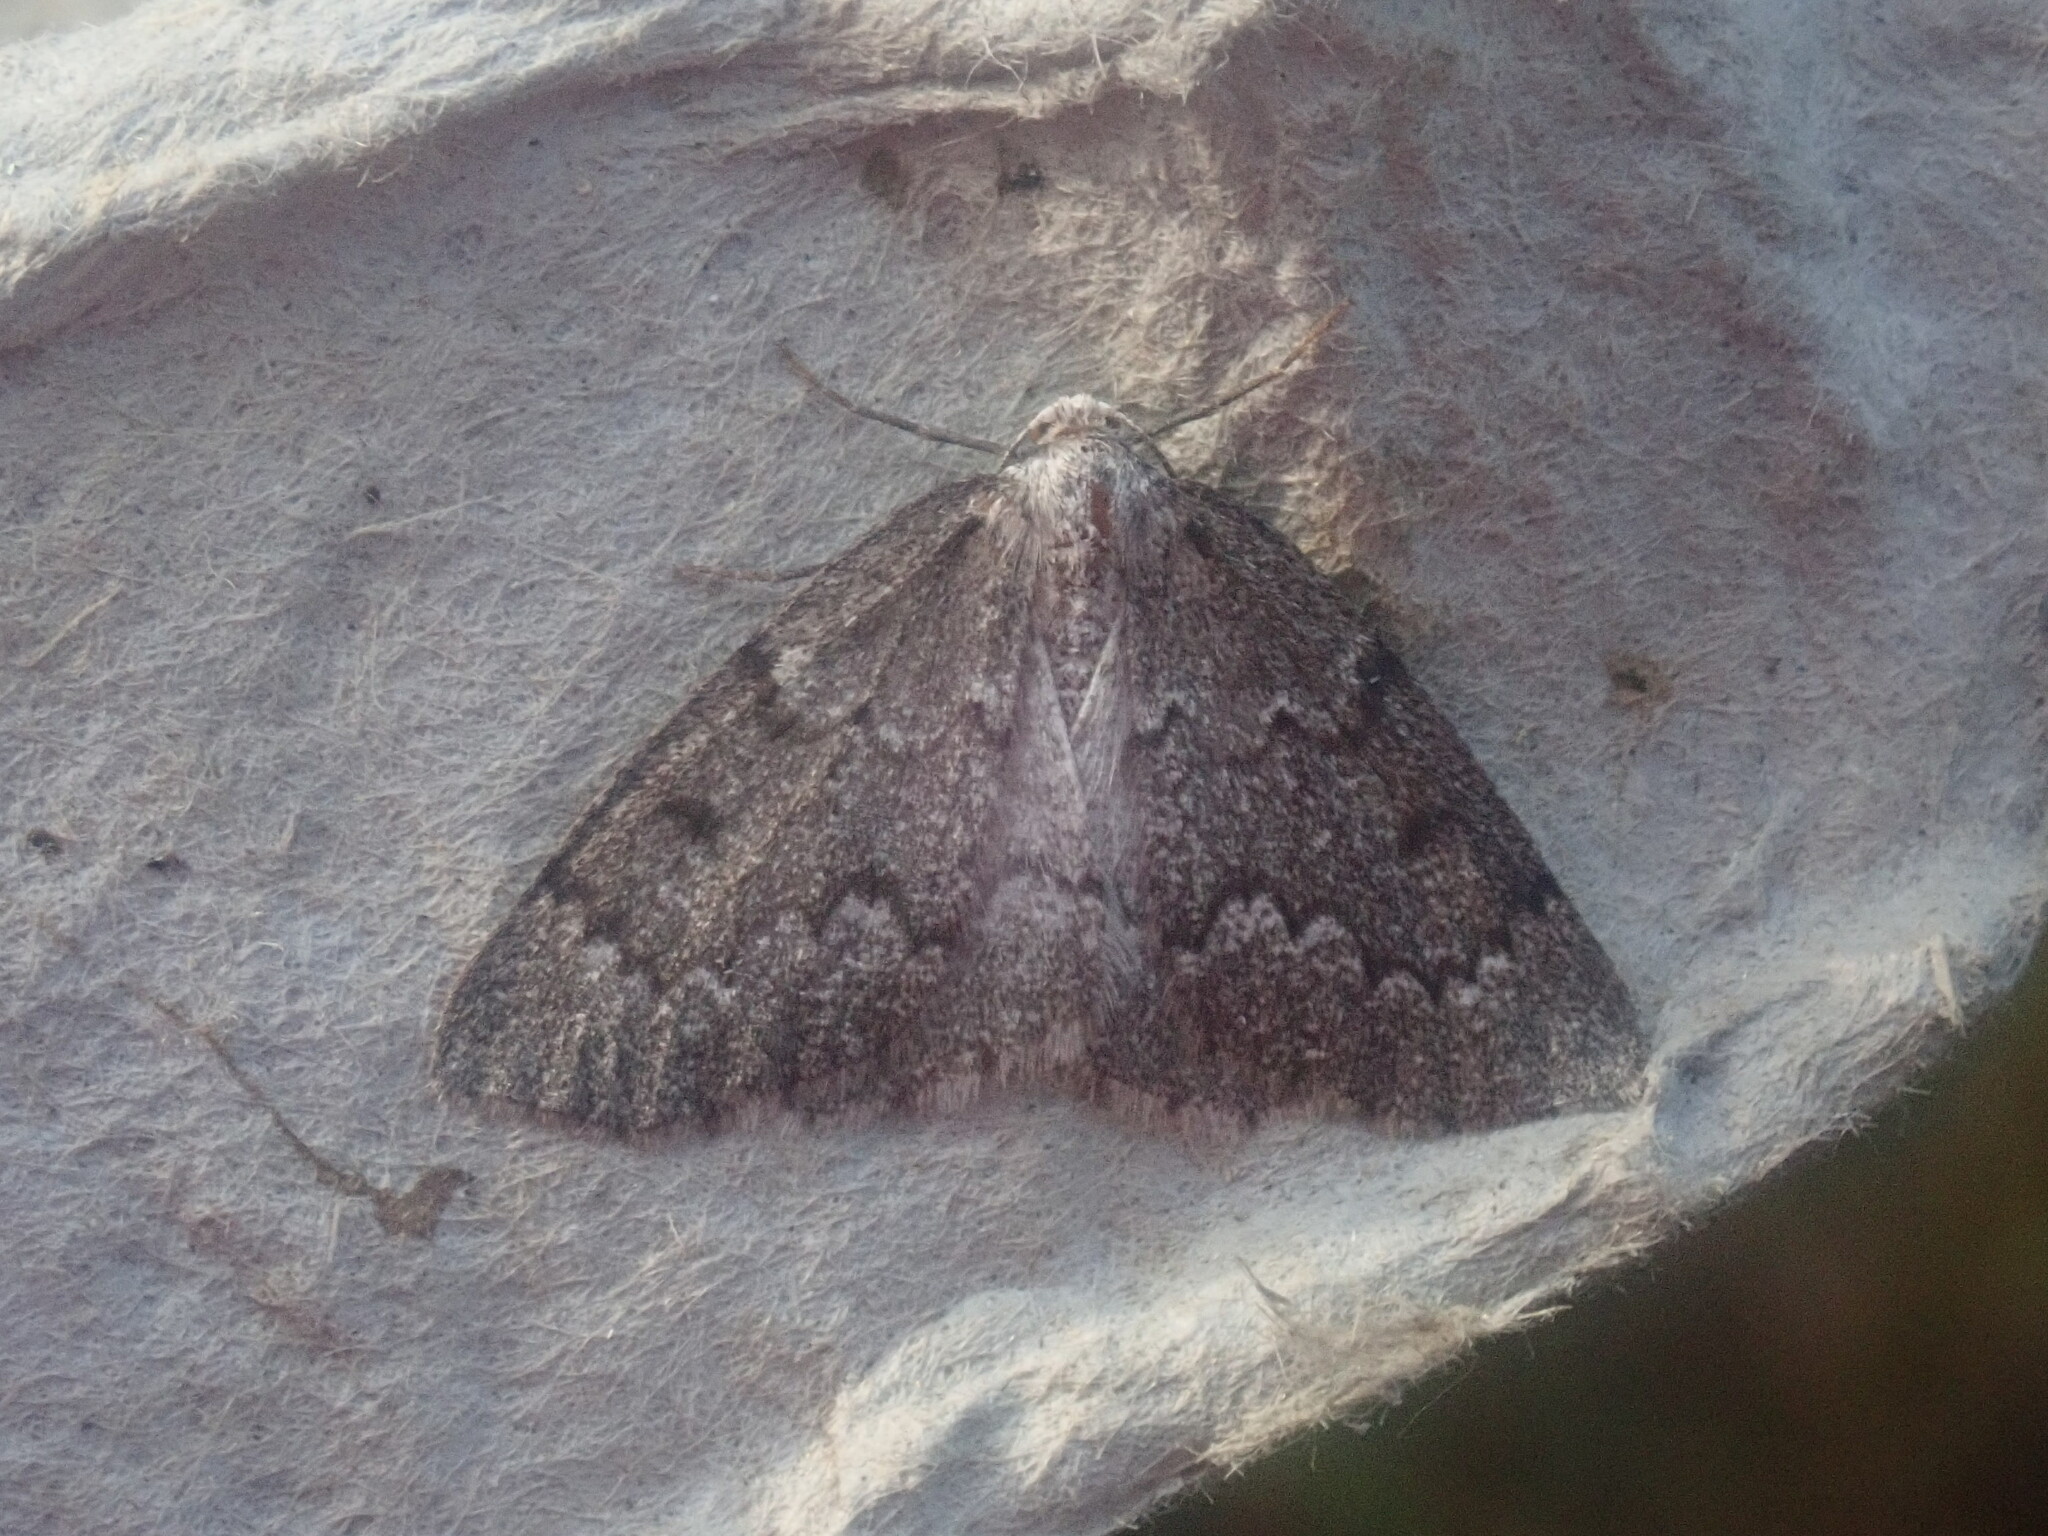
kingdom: Animalia
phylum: Arthropoda
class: Insecta
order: Lepidoptera
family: Geometridae
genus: Nepytia
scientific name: Nepytia canosaria
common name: False hemlock looper
